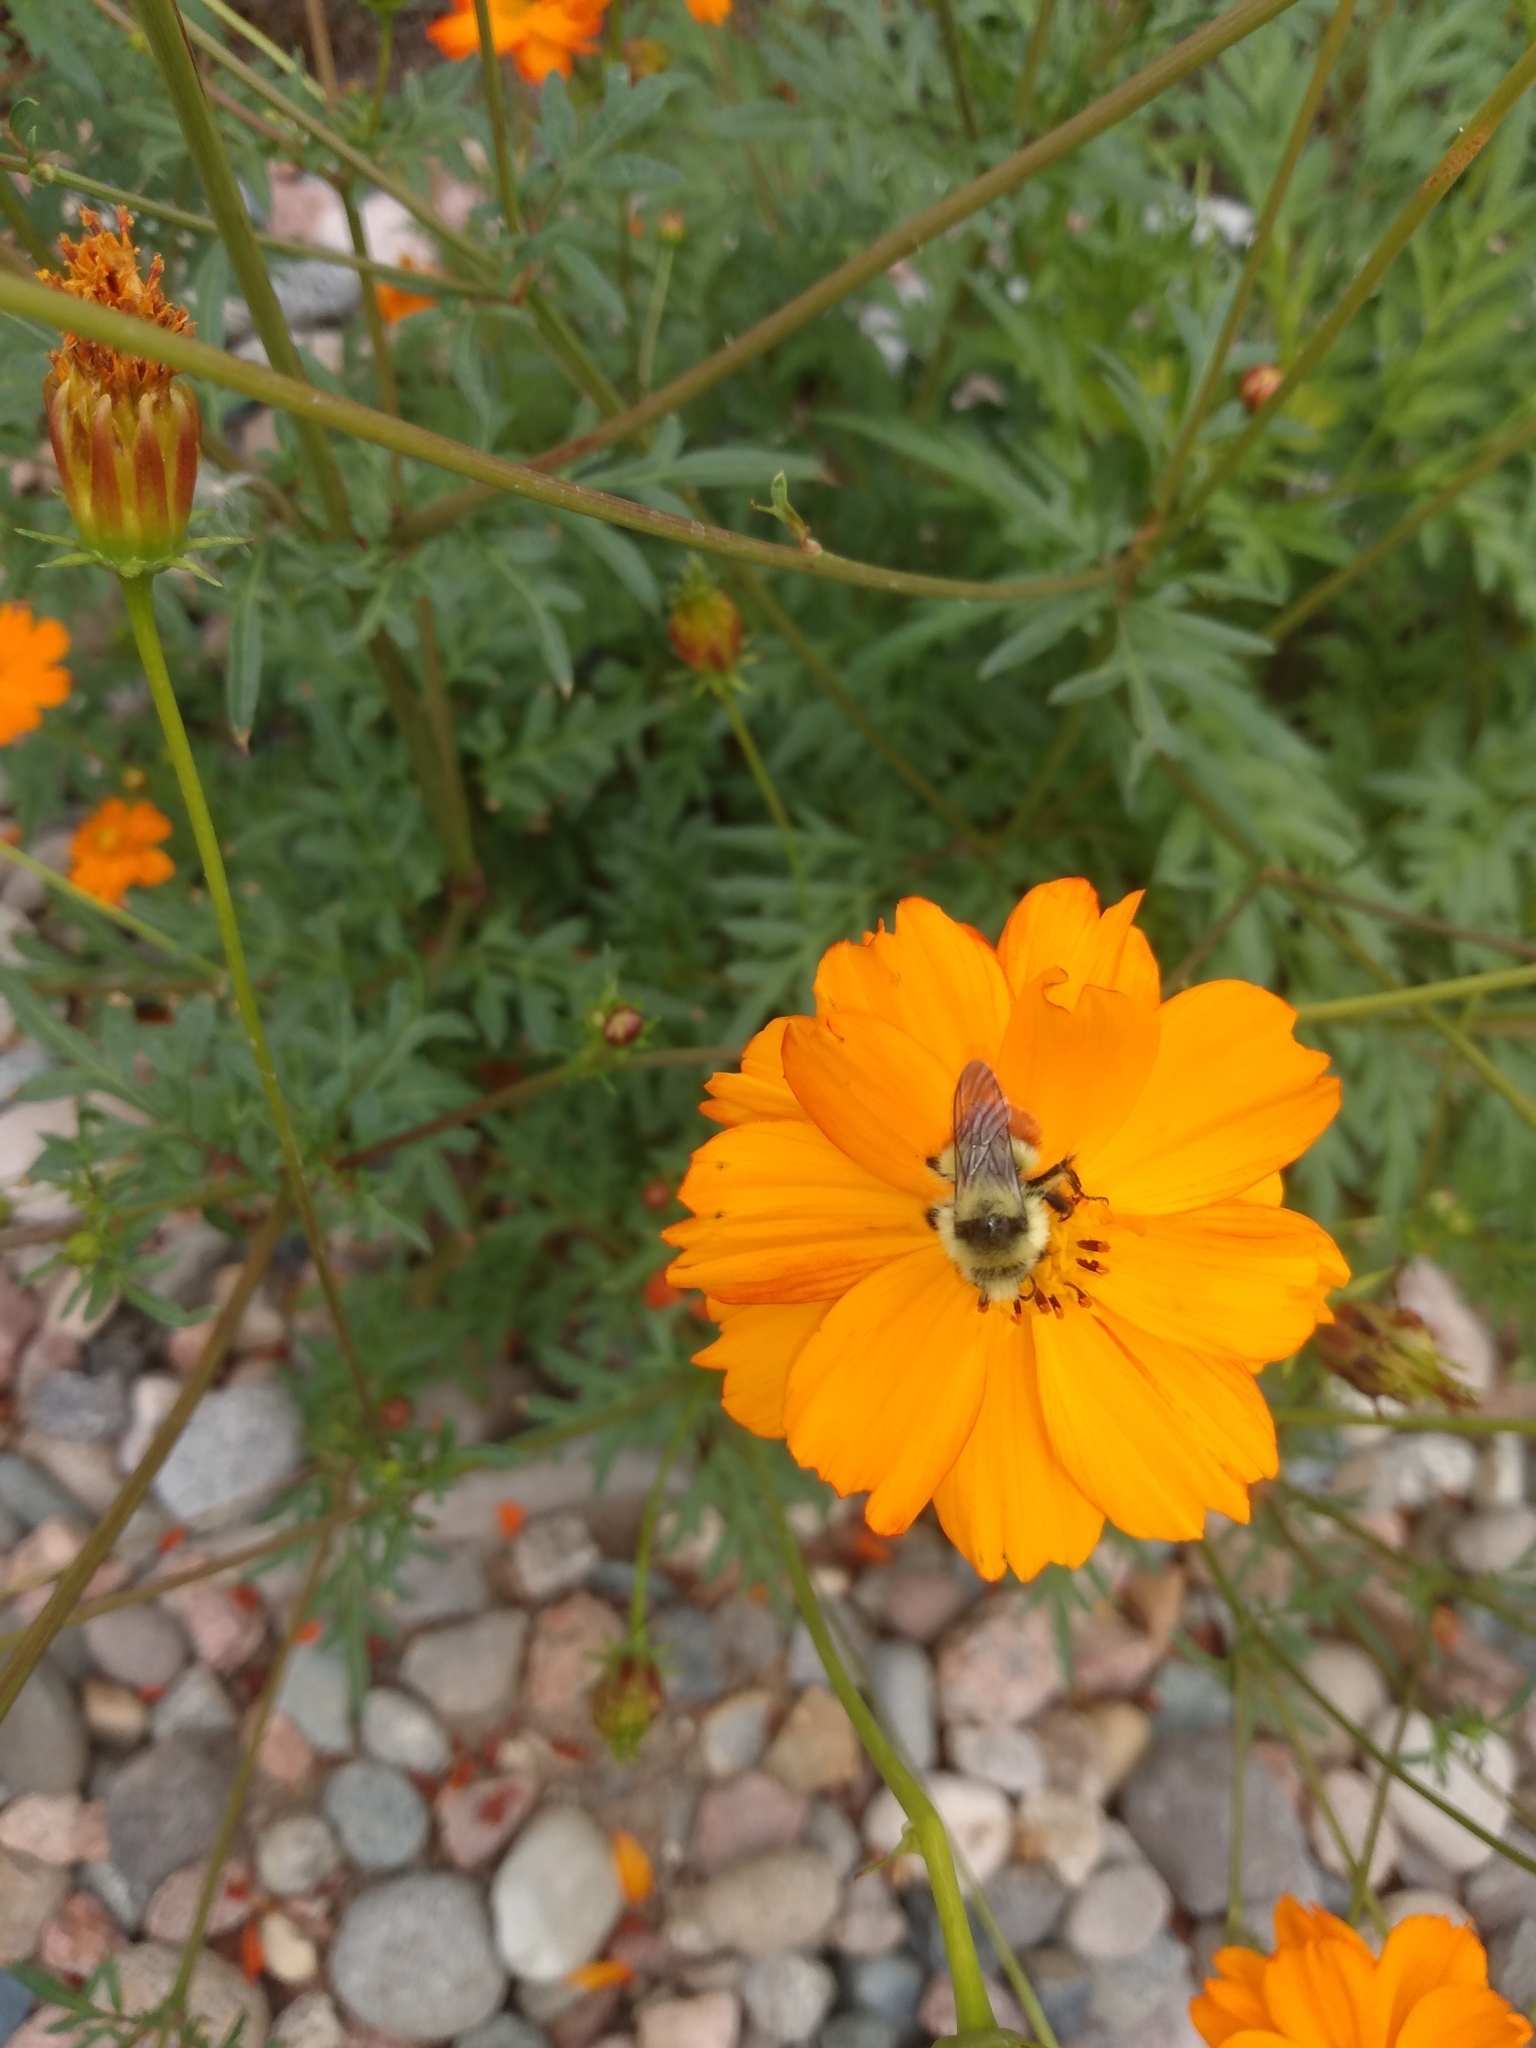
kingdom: Animalia
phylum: Arthropoda
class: Insecta
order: Hymenoptera
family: Apidae
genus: Bombus
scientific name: Bombus huntii
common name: Hunt bumble bee
